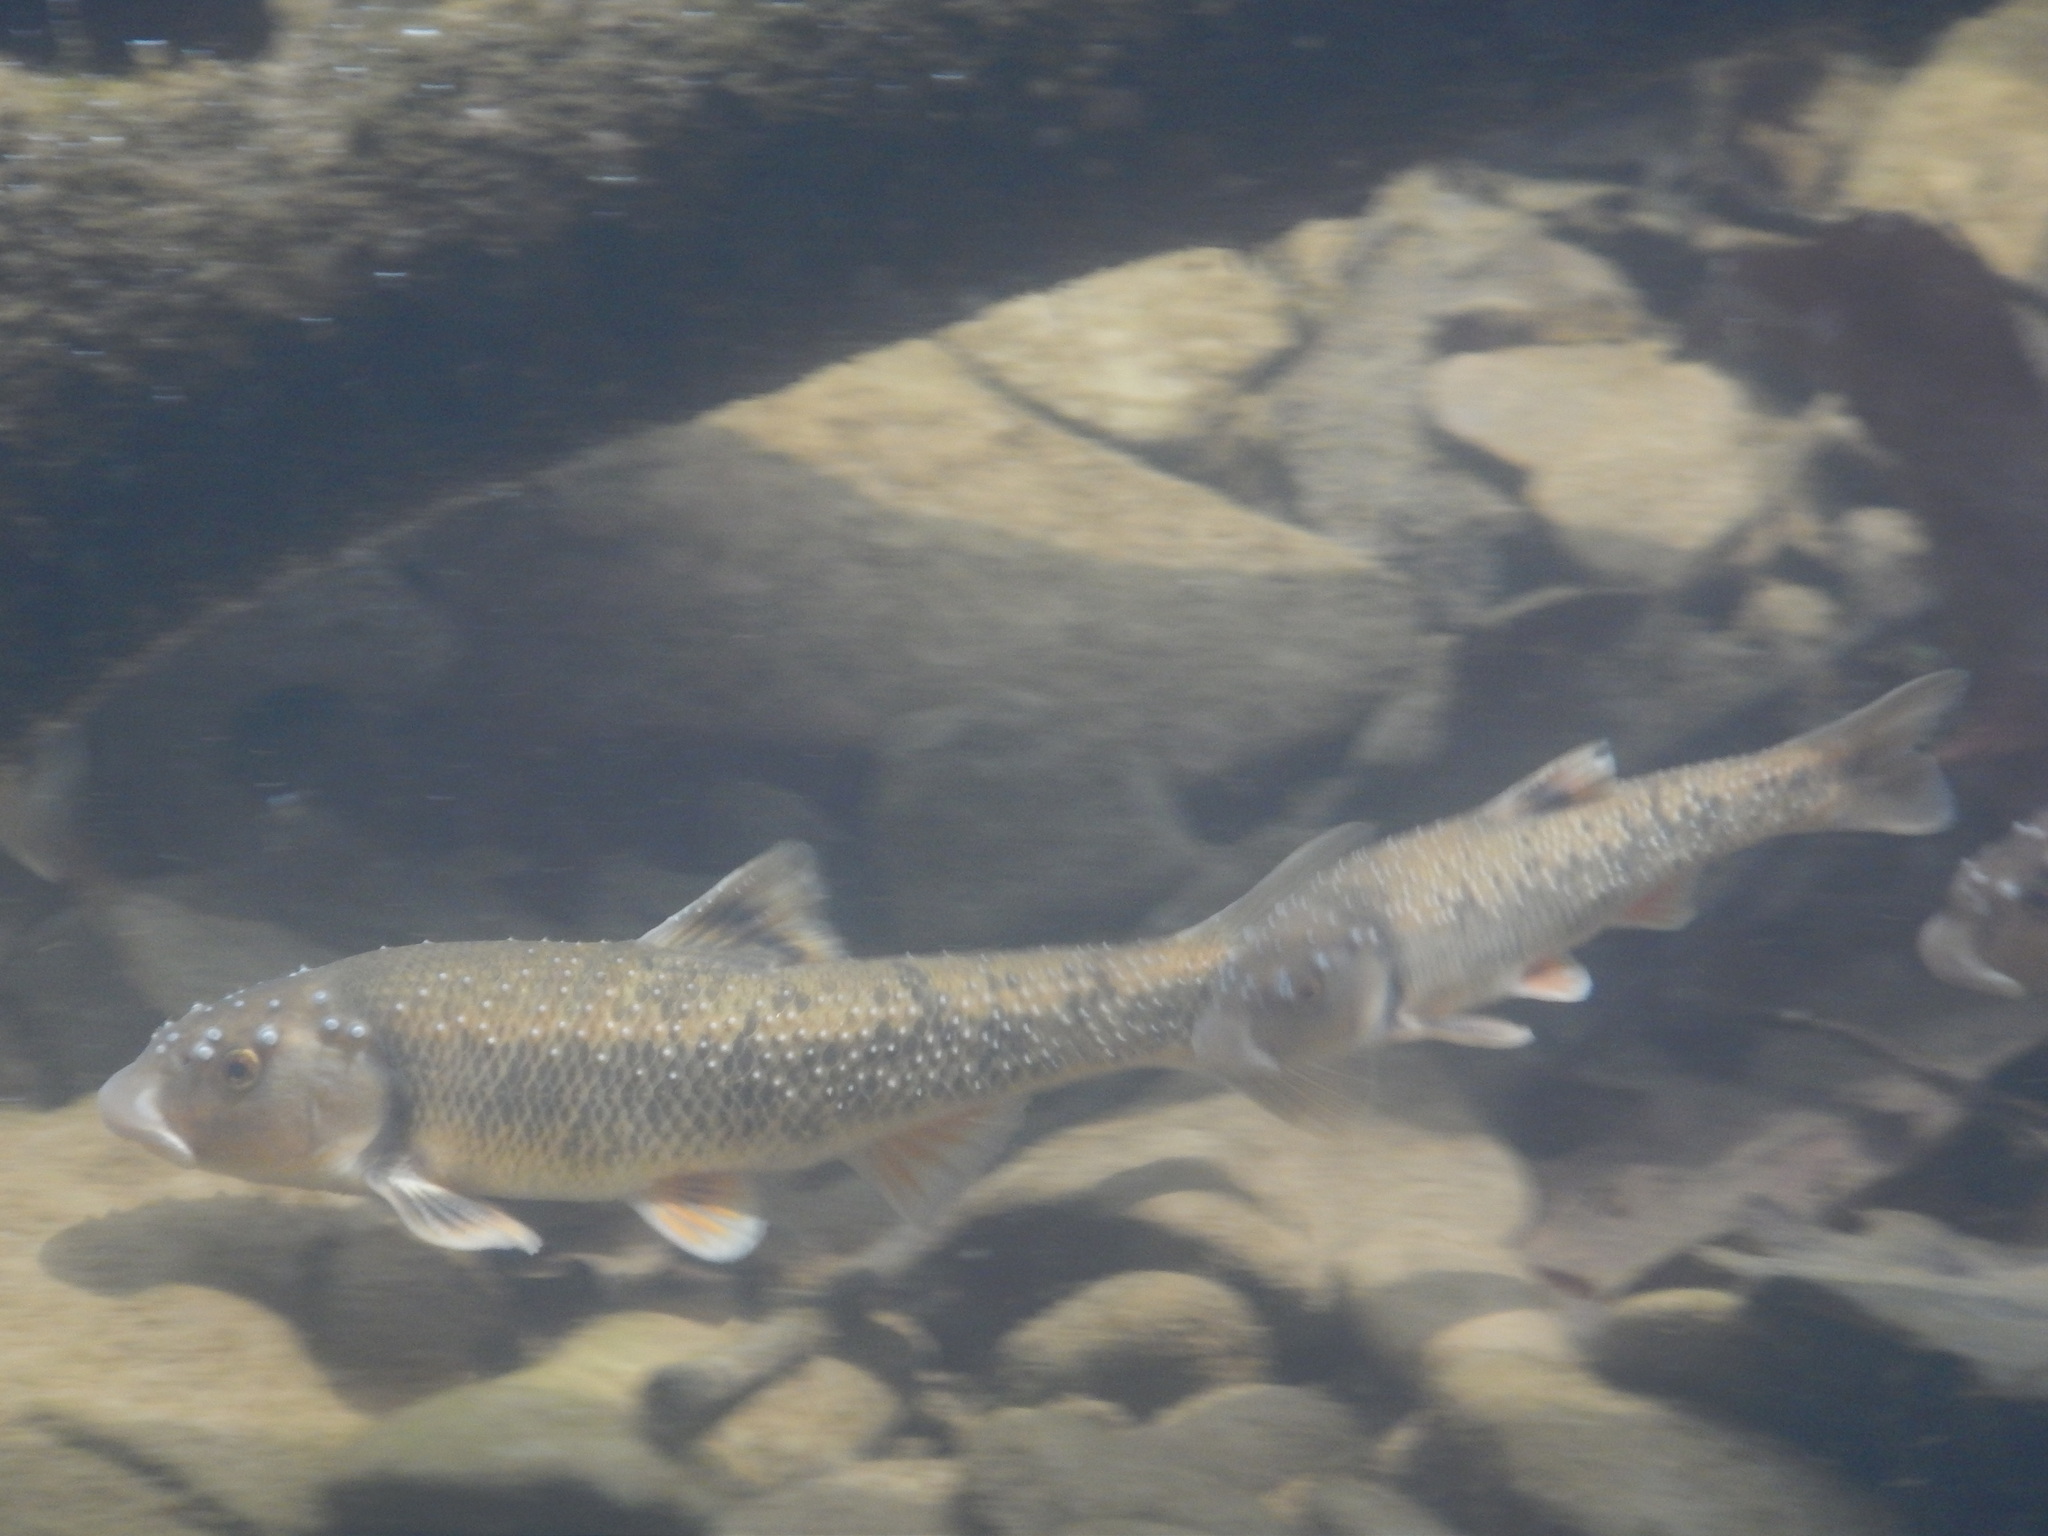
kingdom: Animalia
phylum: Chordata
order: Cypriniformes
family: Cyprinidae
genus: Campostoma
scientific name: Campostoma anomalum
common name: Central stoneroller
